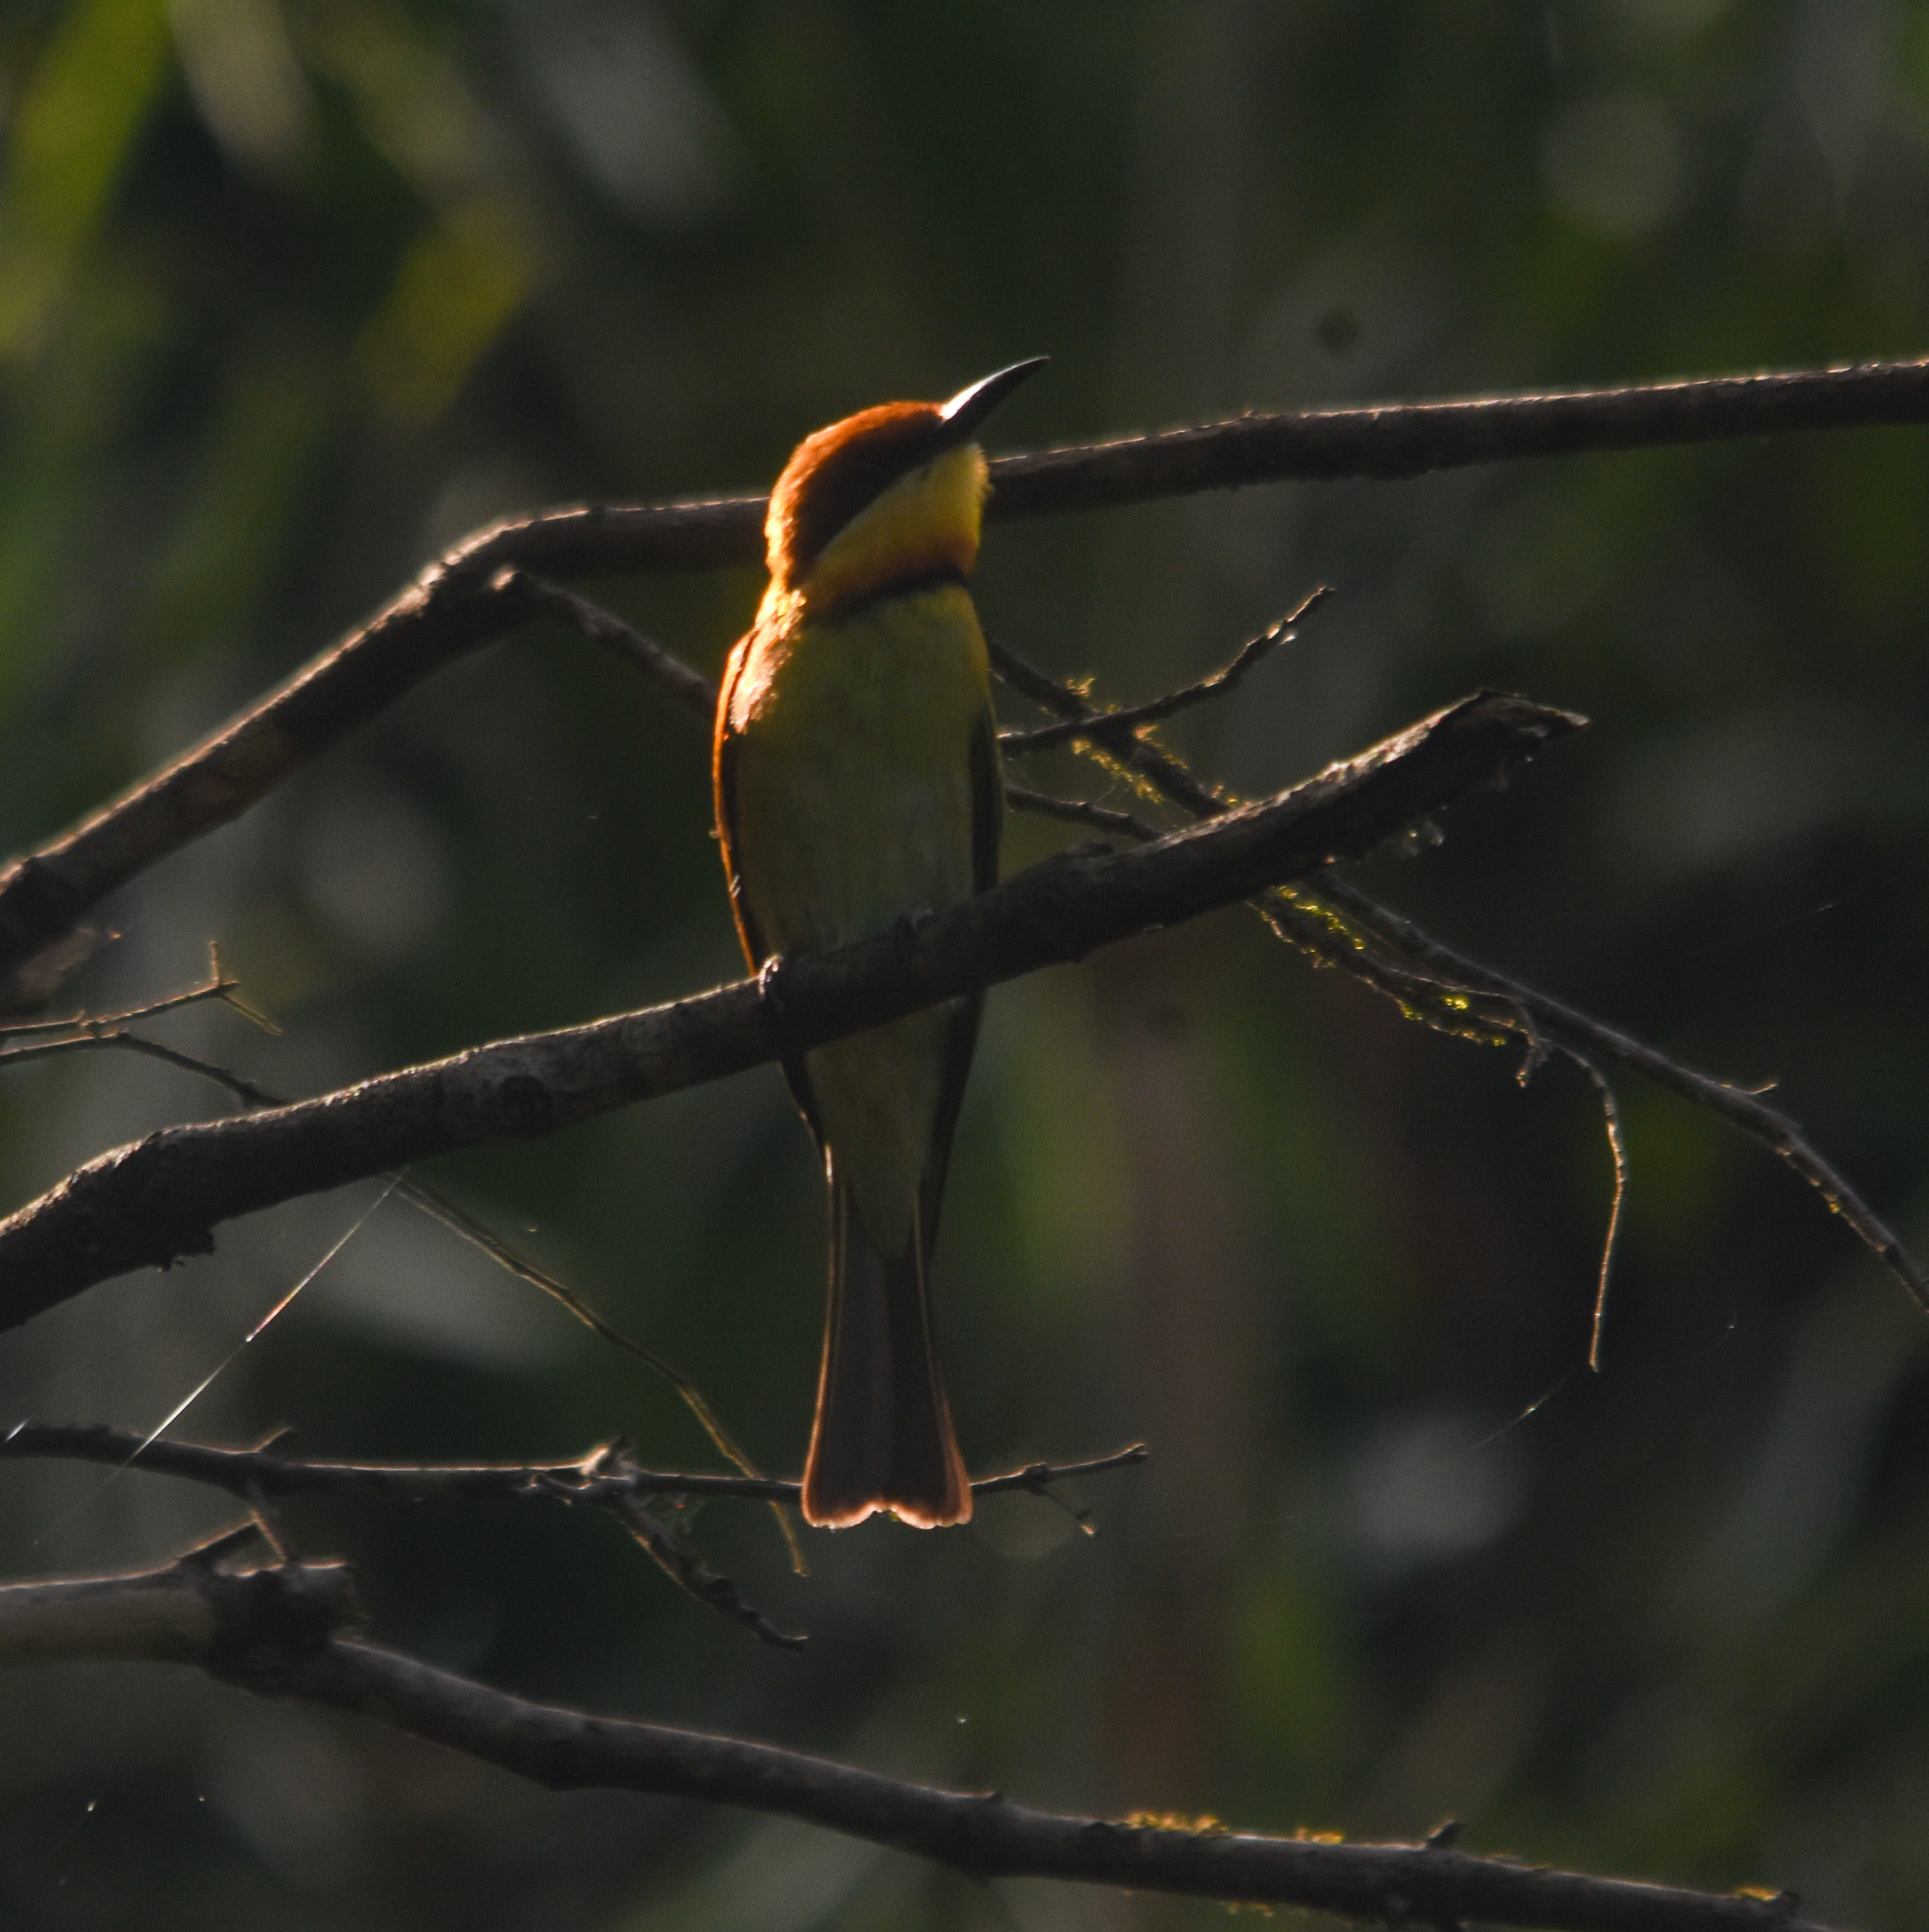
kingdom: Animalia
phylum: Chordata
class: Aves
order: Coraciiformes
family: Meropidae
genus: Merops
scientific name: Merops leschenaulti
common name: Chestnut-headed bee-eater
